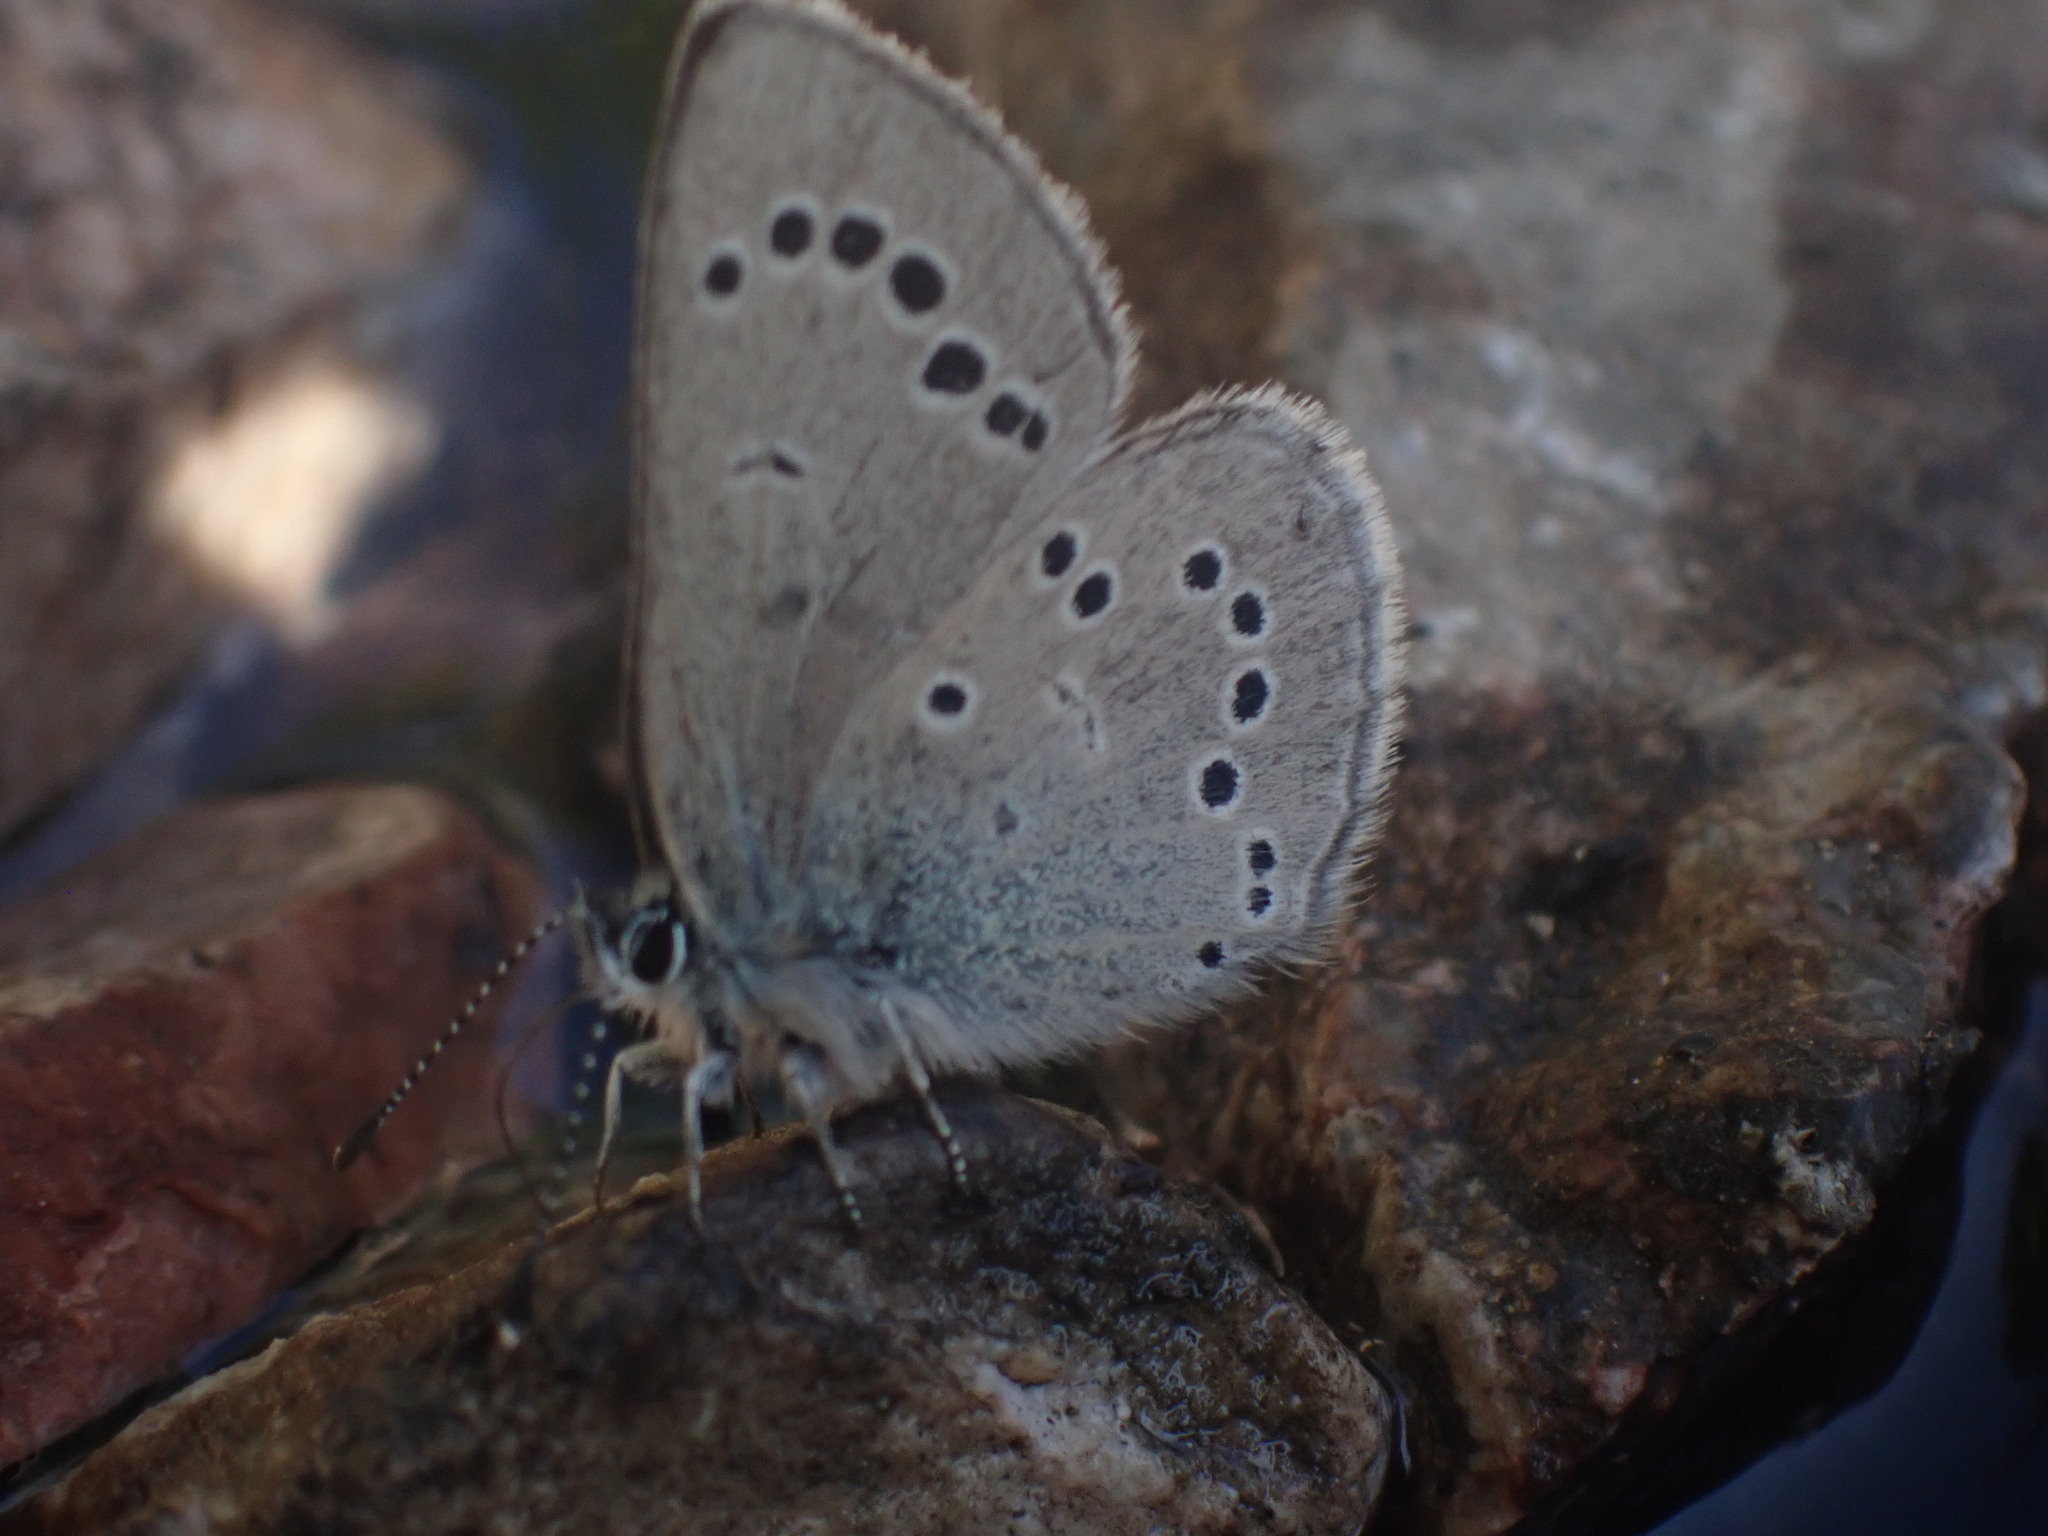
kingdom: Animalia
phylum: Arthropoda
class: Insecta
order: Lepidoptera
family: Lycaenidae
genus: Glaucopsyche
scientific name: Glaucopsyche lygdamus
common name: Silvery blue
